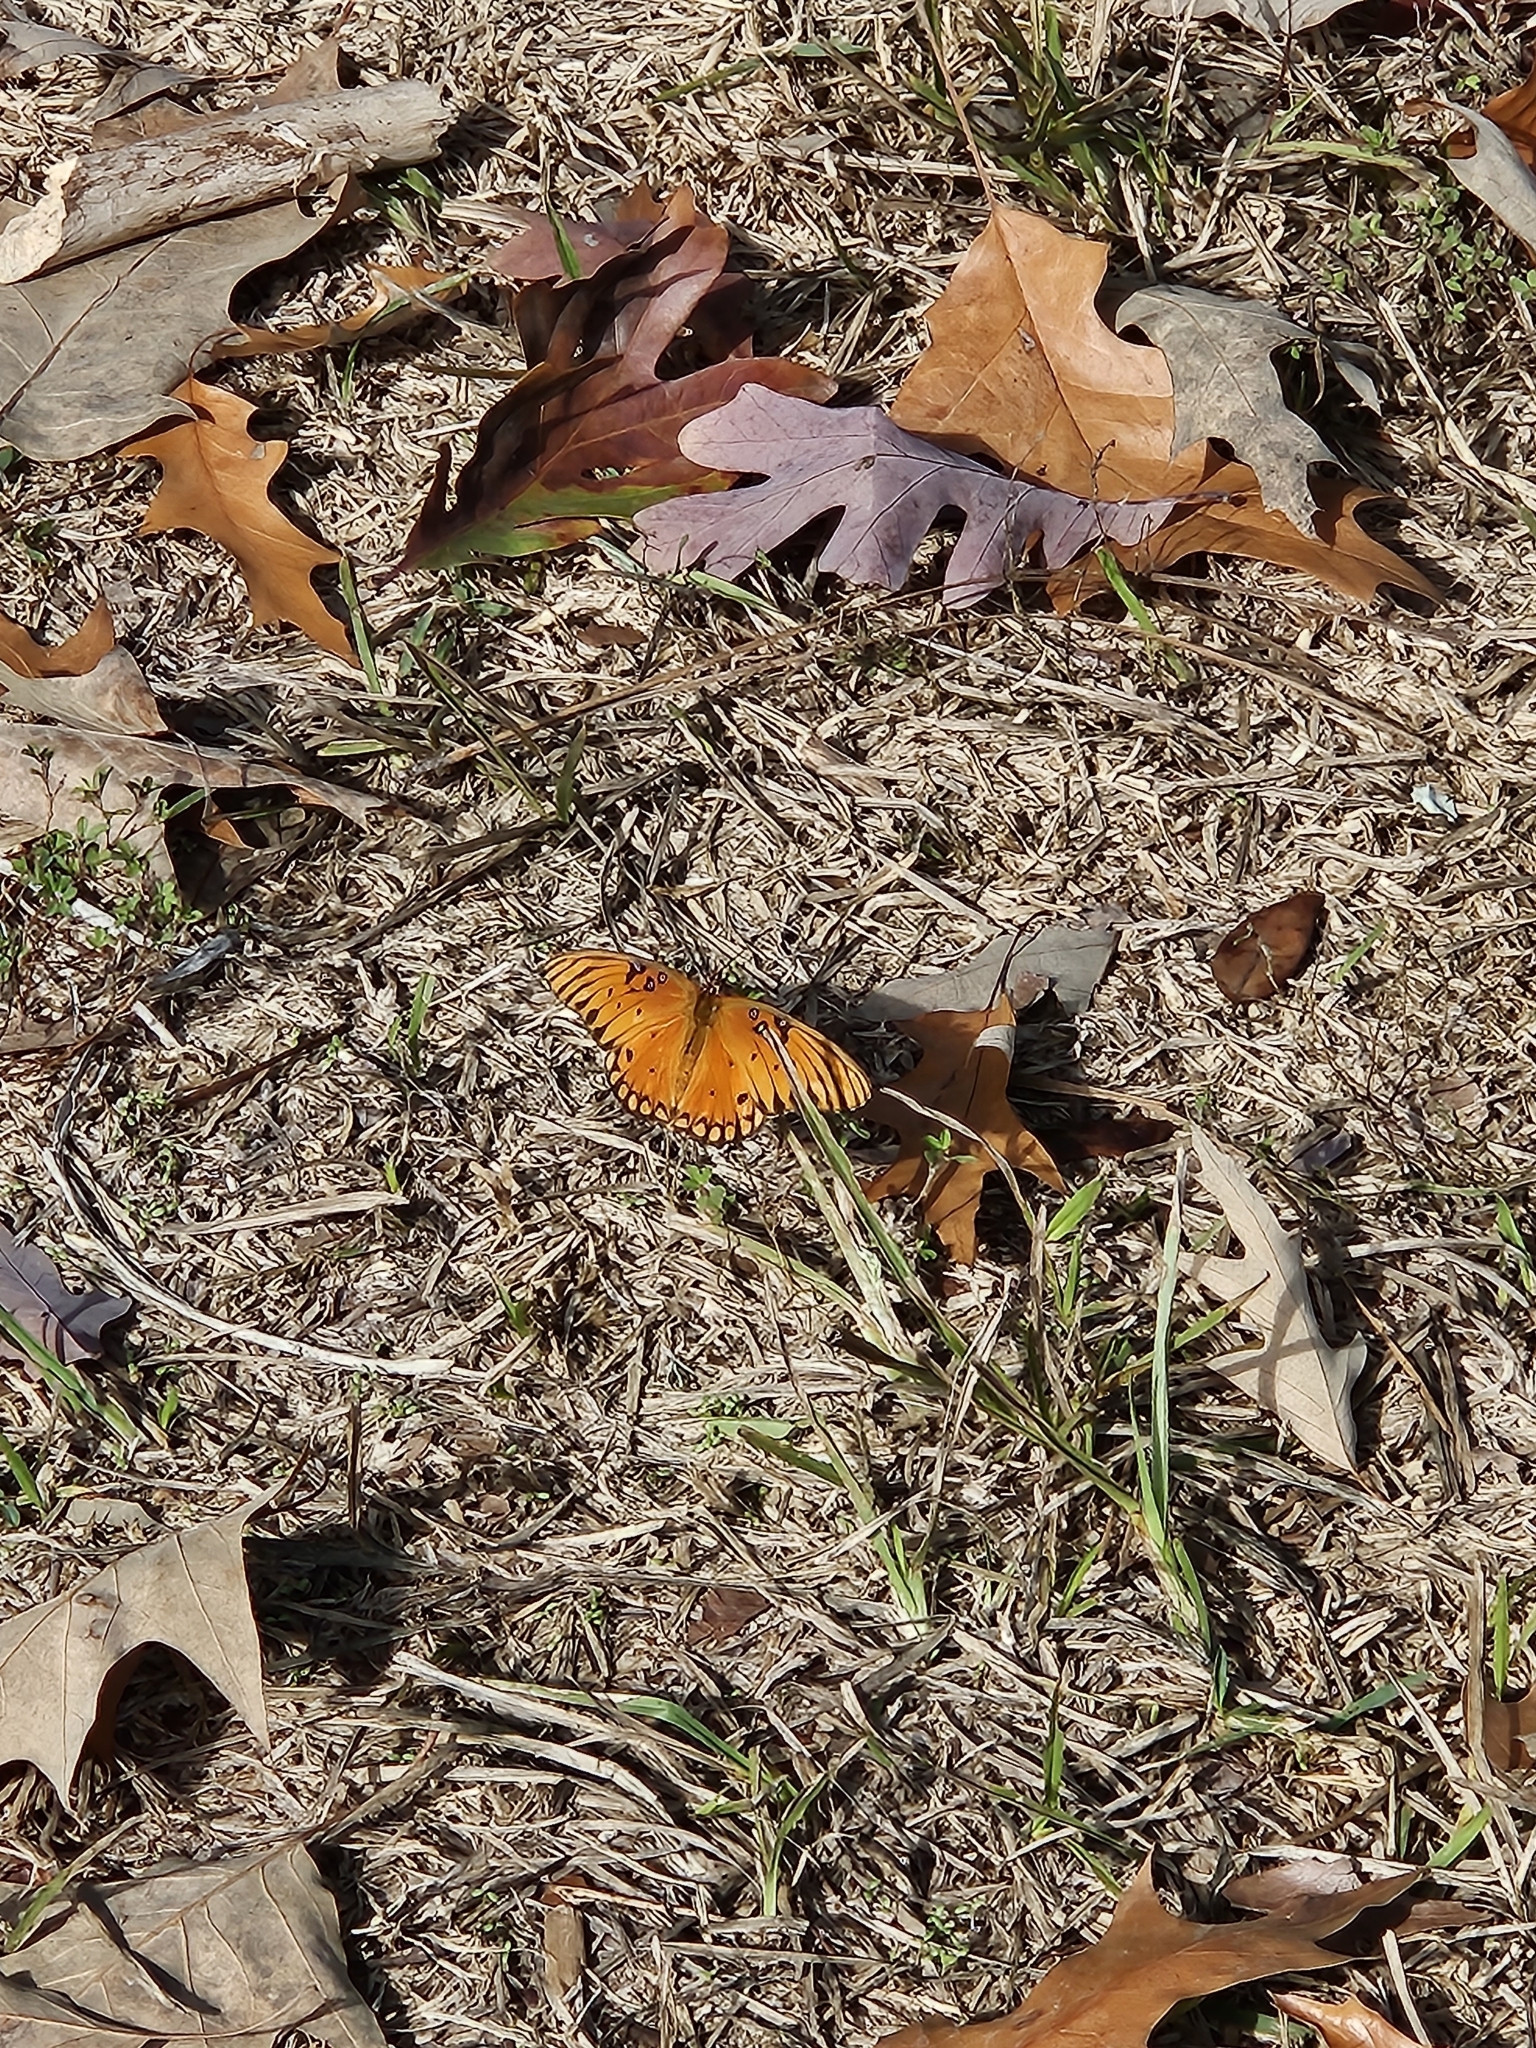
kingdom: Animalia
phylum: Arthropoda
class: Insecta
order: Lepidoptera
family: Nymphalidae
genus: Dione
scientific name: Dione vanillae
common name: Gulf fritillary
